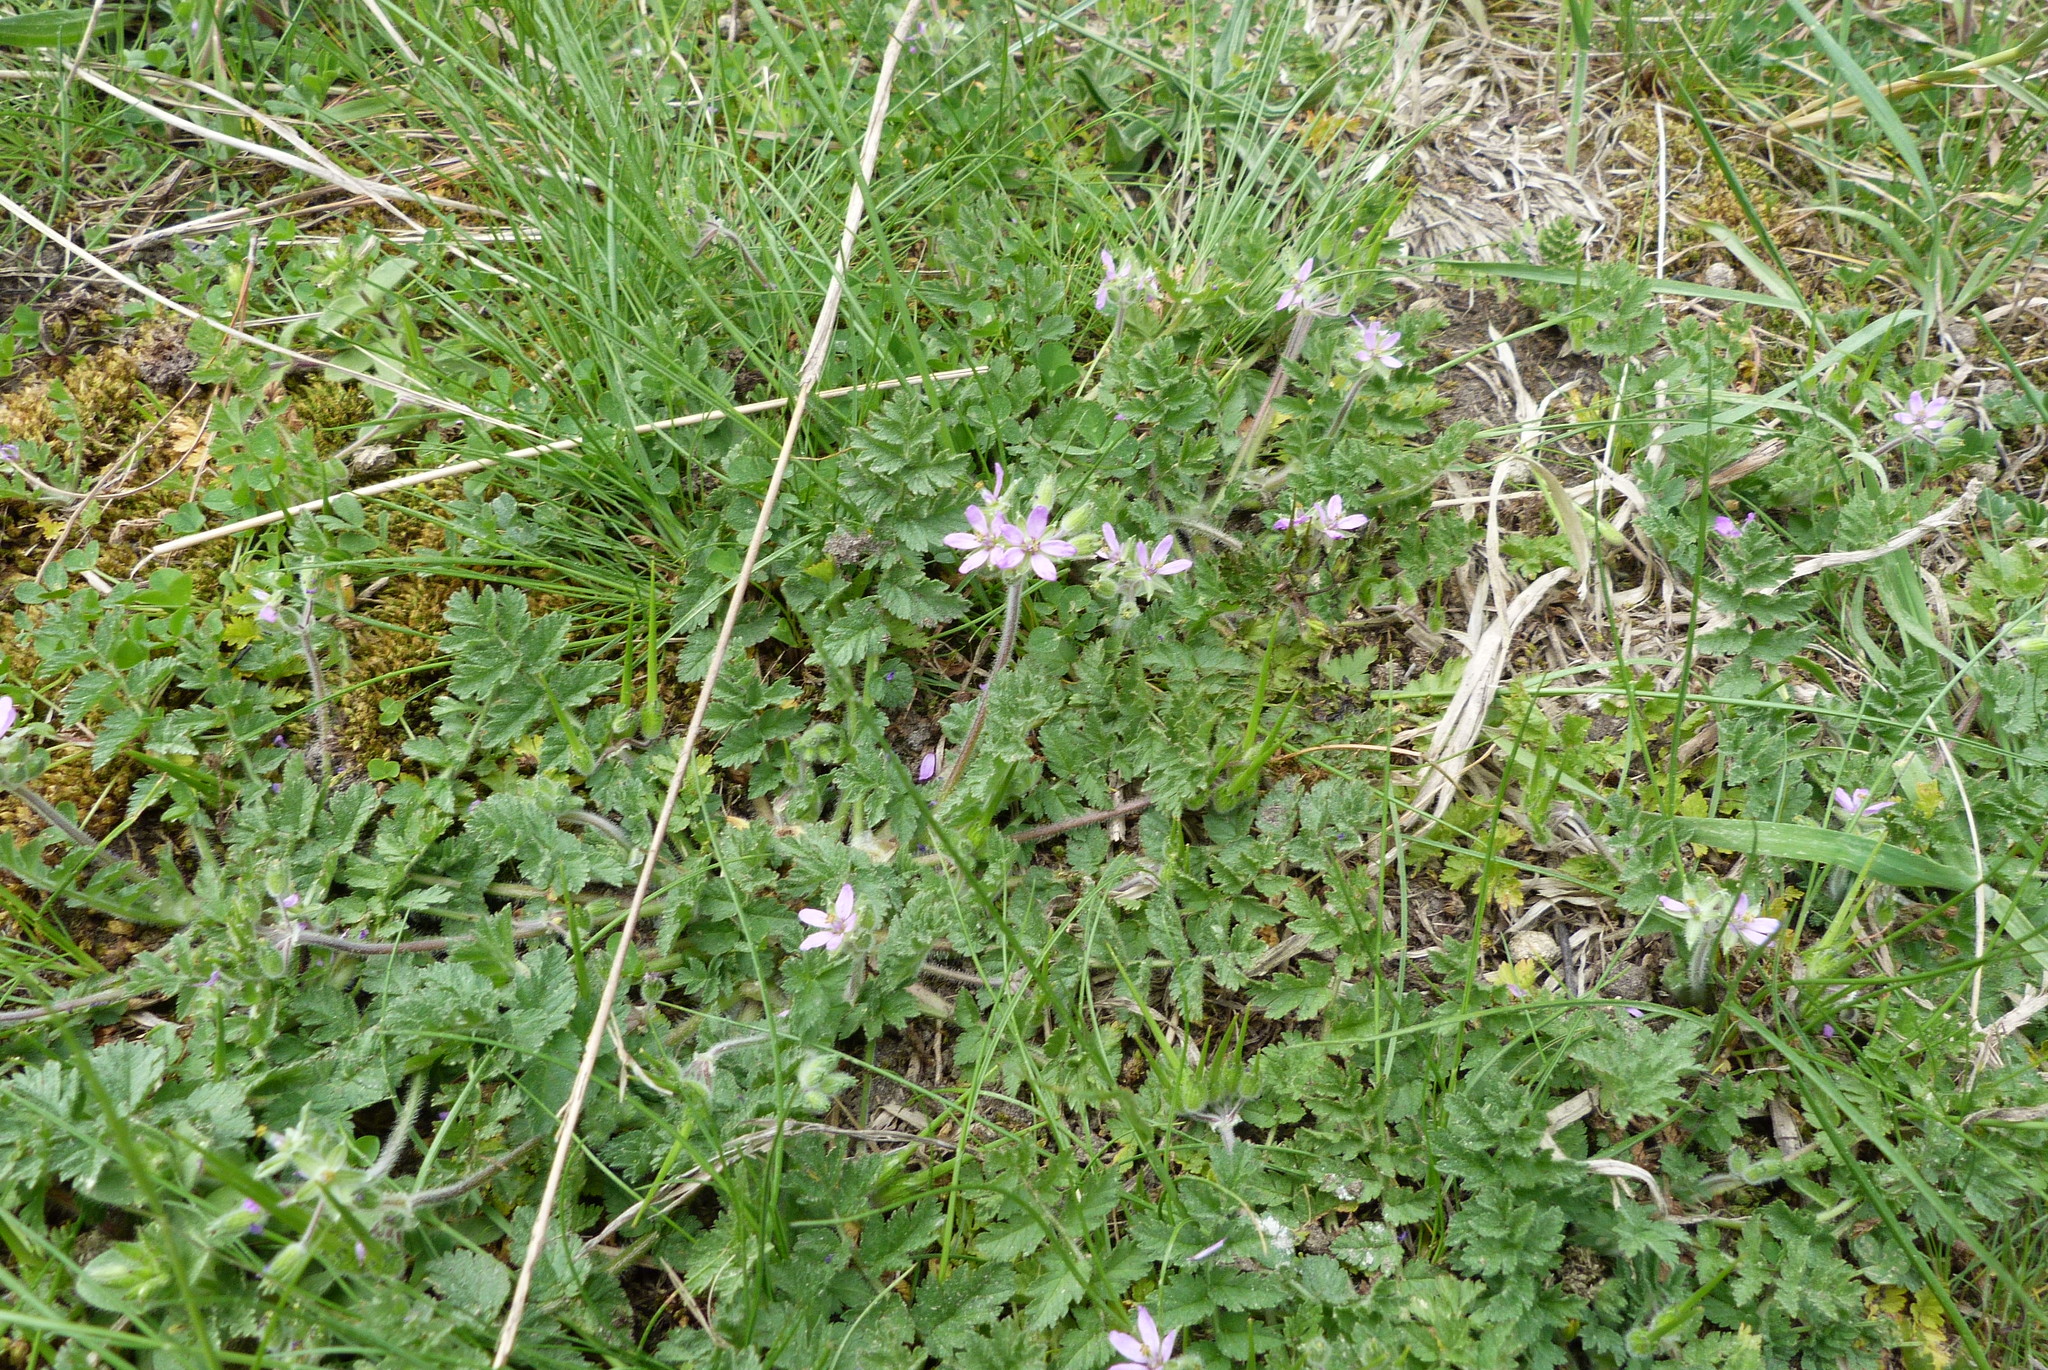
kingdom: Plantae
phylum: Tracheophyta
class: Magnoliopsida
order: Geraniales
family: Geraniaceae
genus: Erodium
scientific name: Erodium moschatum
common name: Musk stork's-bill
